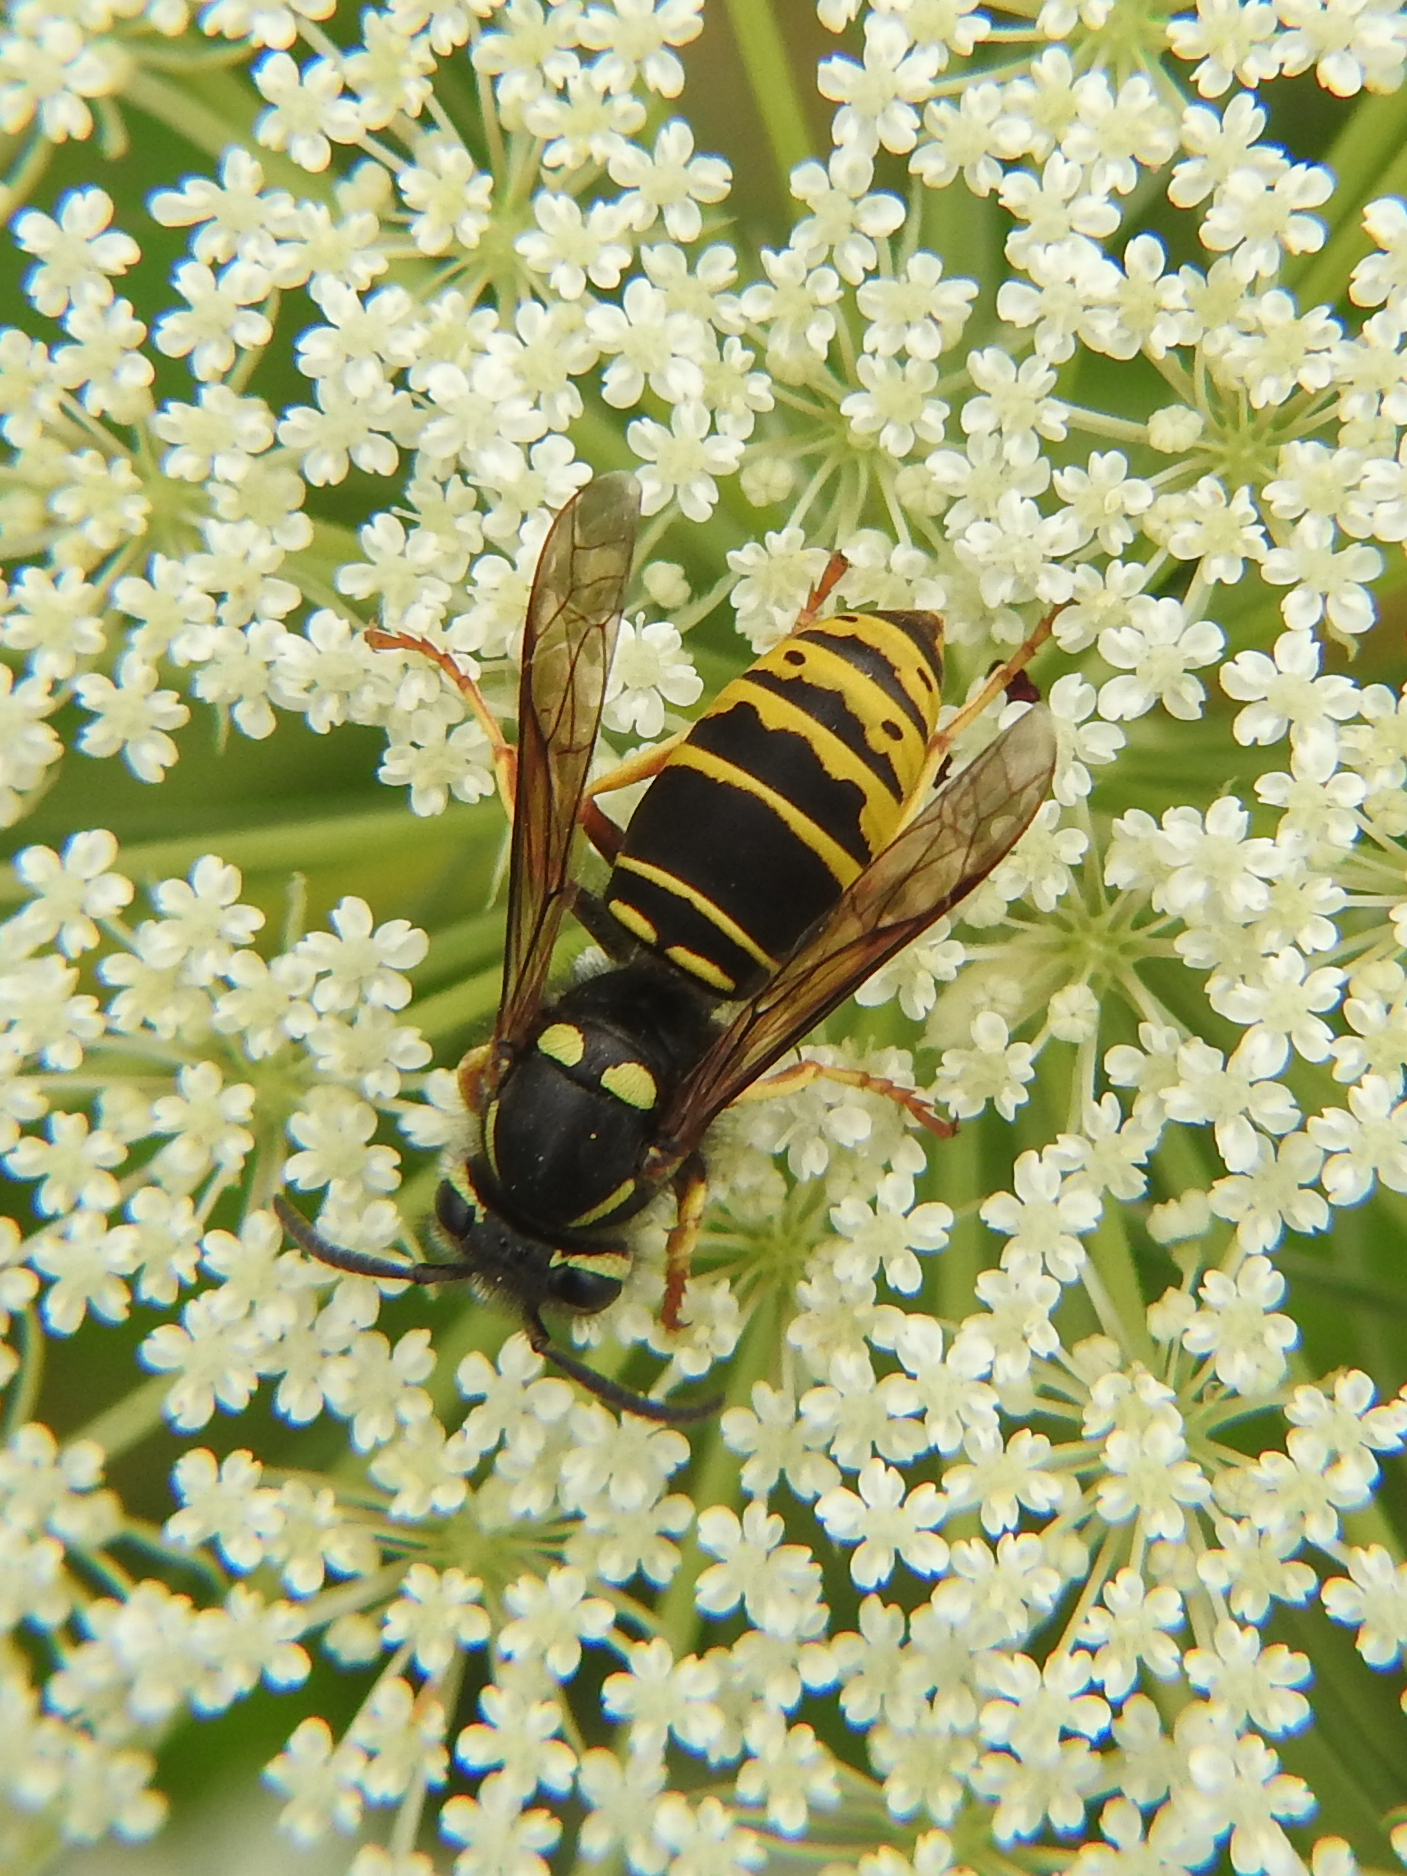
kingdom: Animalia
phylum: Arthropoda
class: Insecta
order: Hymenoptera
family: Vespidae
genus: Vespula
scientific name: Vespula vidua
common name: Widow yellowjacket
